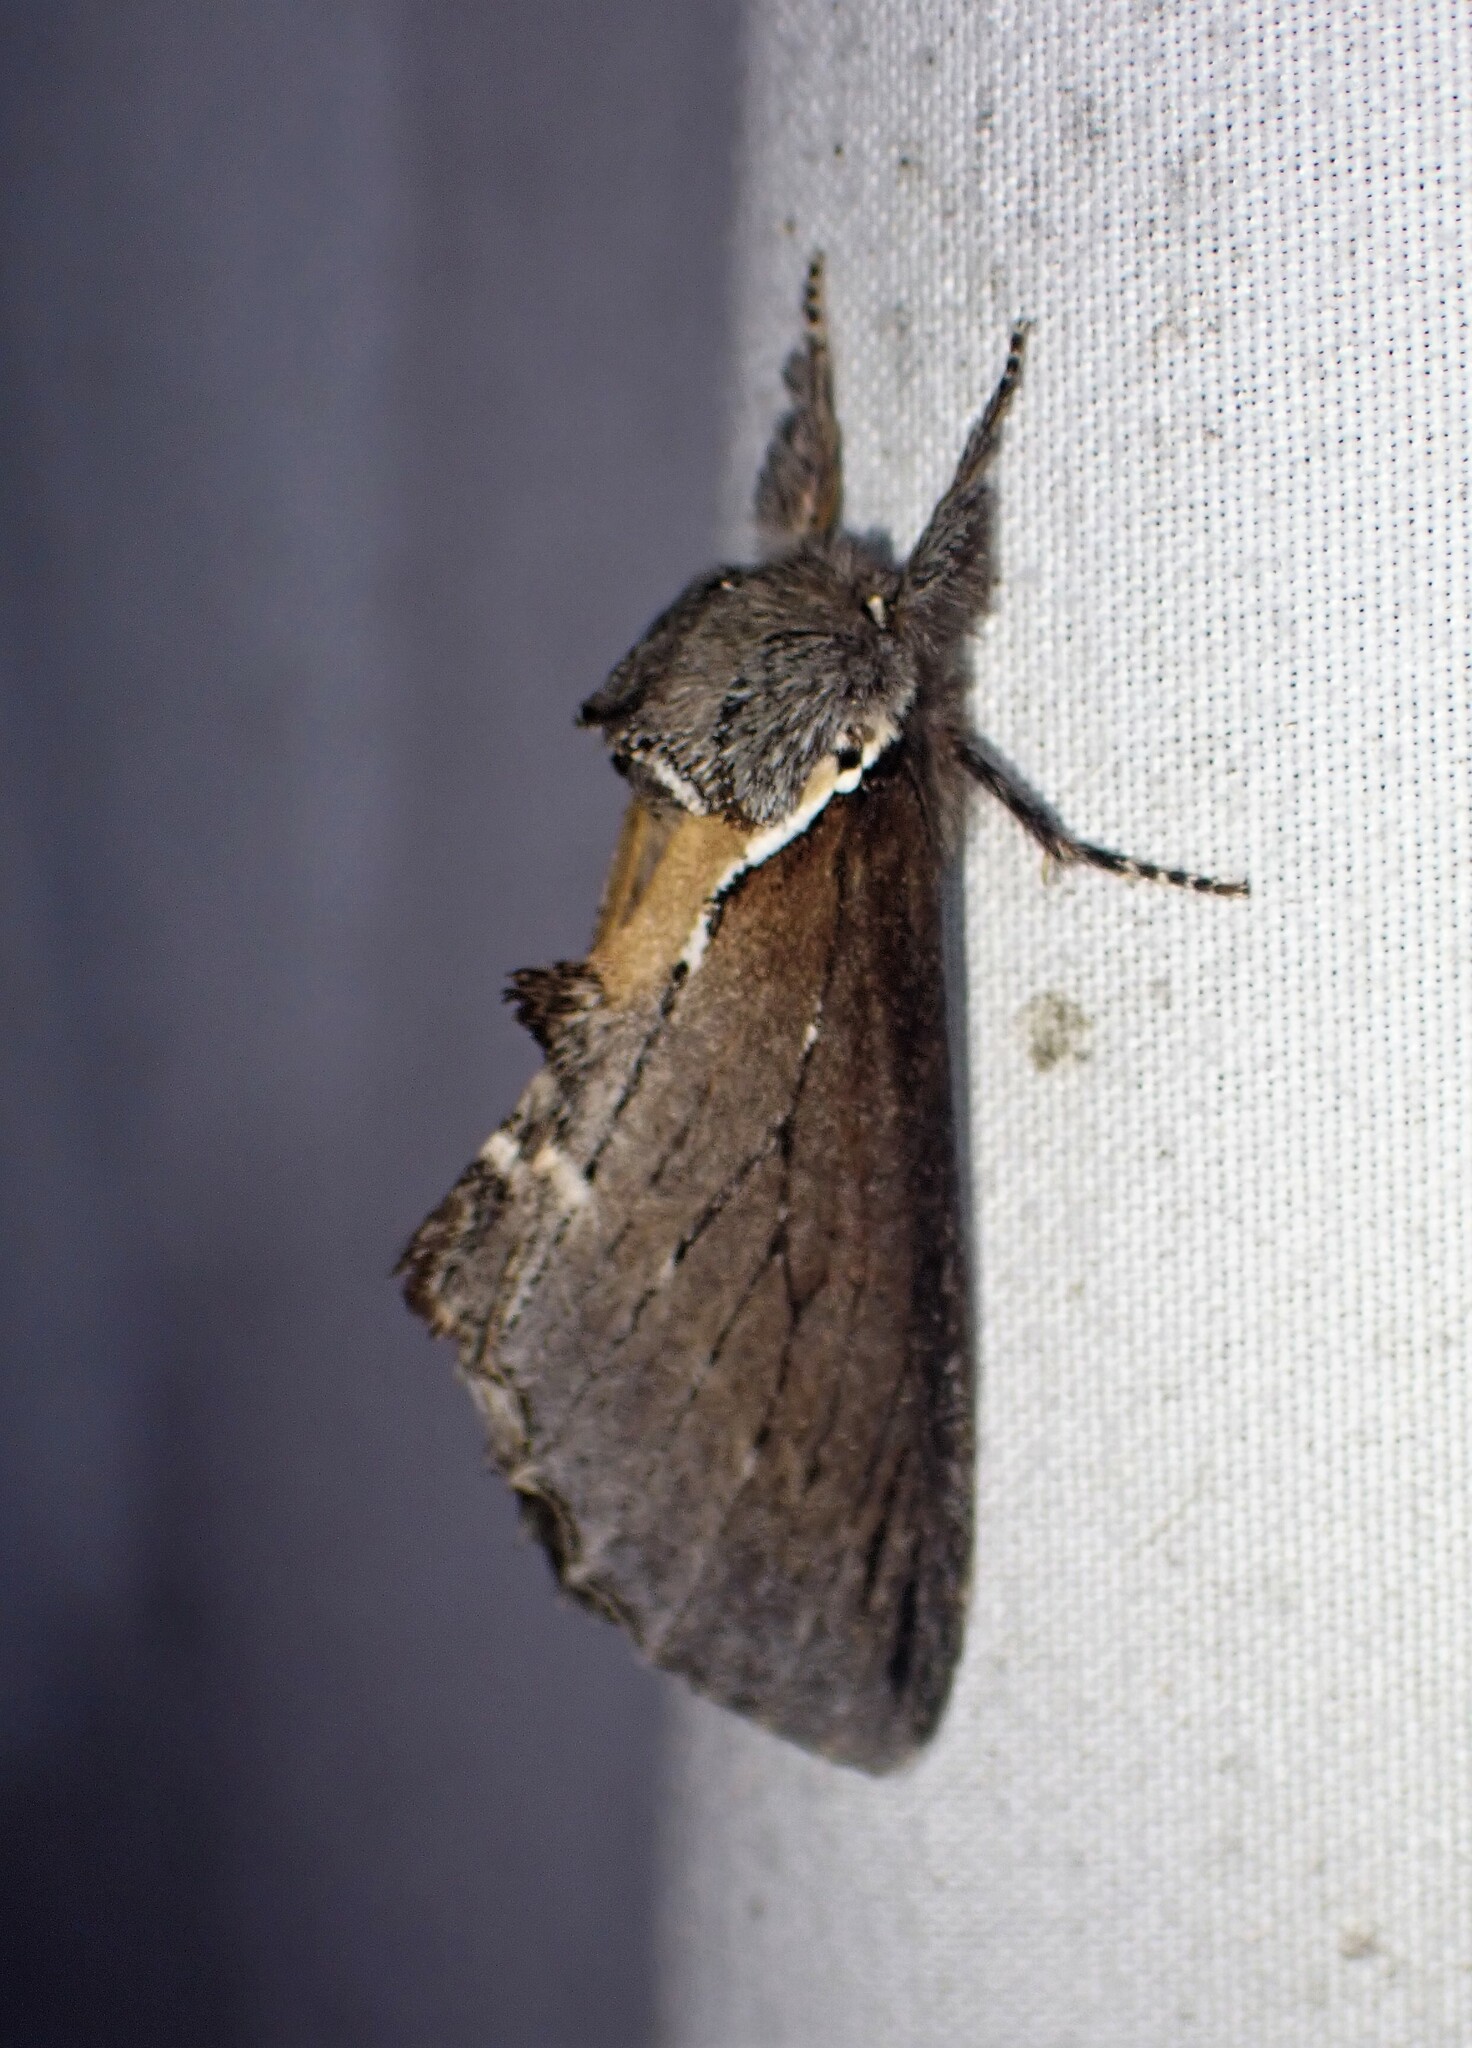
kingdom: Animalia
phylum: Arthropoda
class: Insecta
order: Lepidoptera
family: Notodontidae
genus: Pheosidea
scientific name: Pheosidea elegans
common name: Elegant prominent
